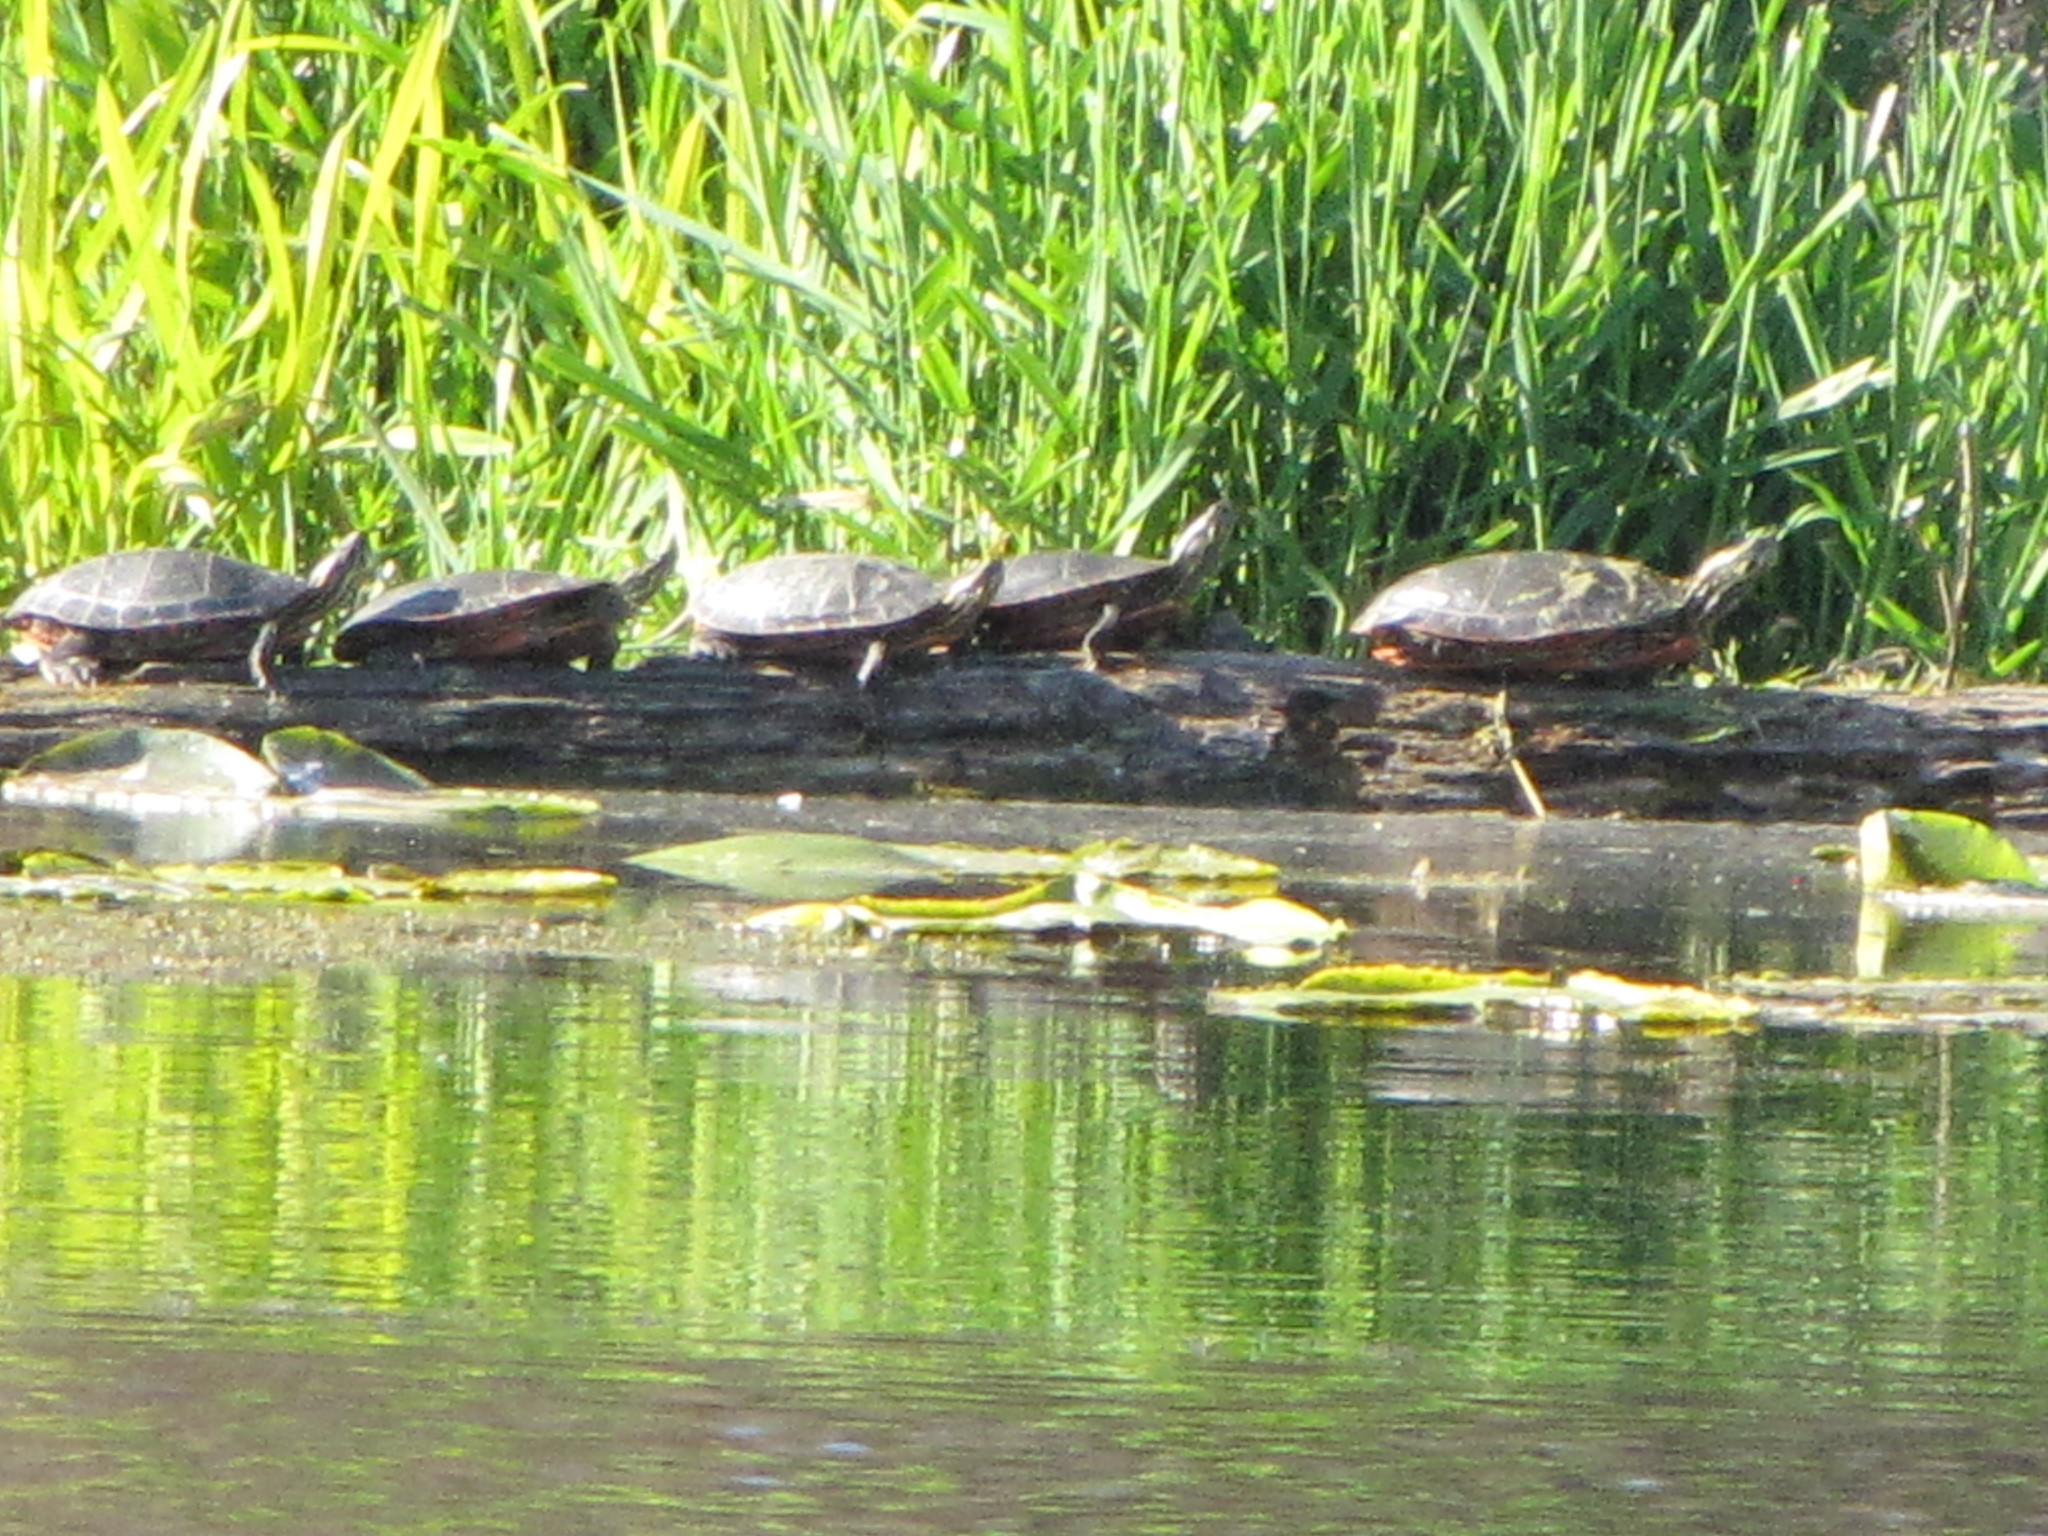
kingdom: Animalia
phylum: Chordata
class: Testudines
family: Emydidae
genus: Chrysemys
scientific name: Chrysemys picta
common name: Painted turtle
